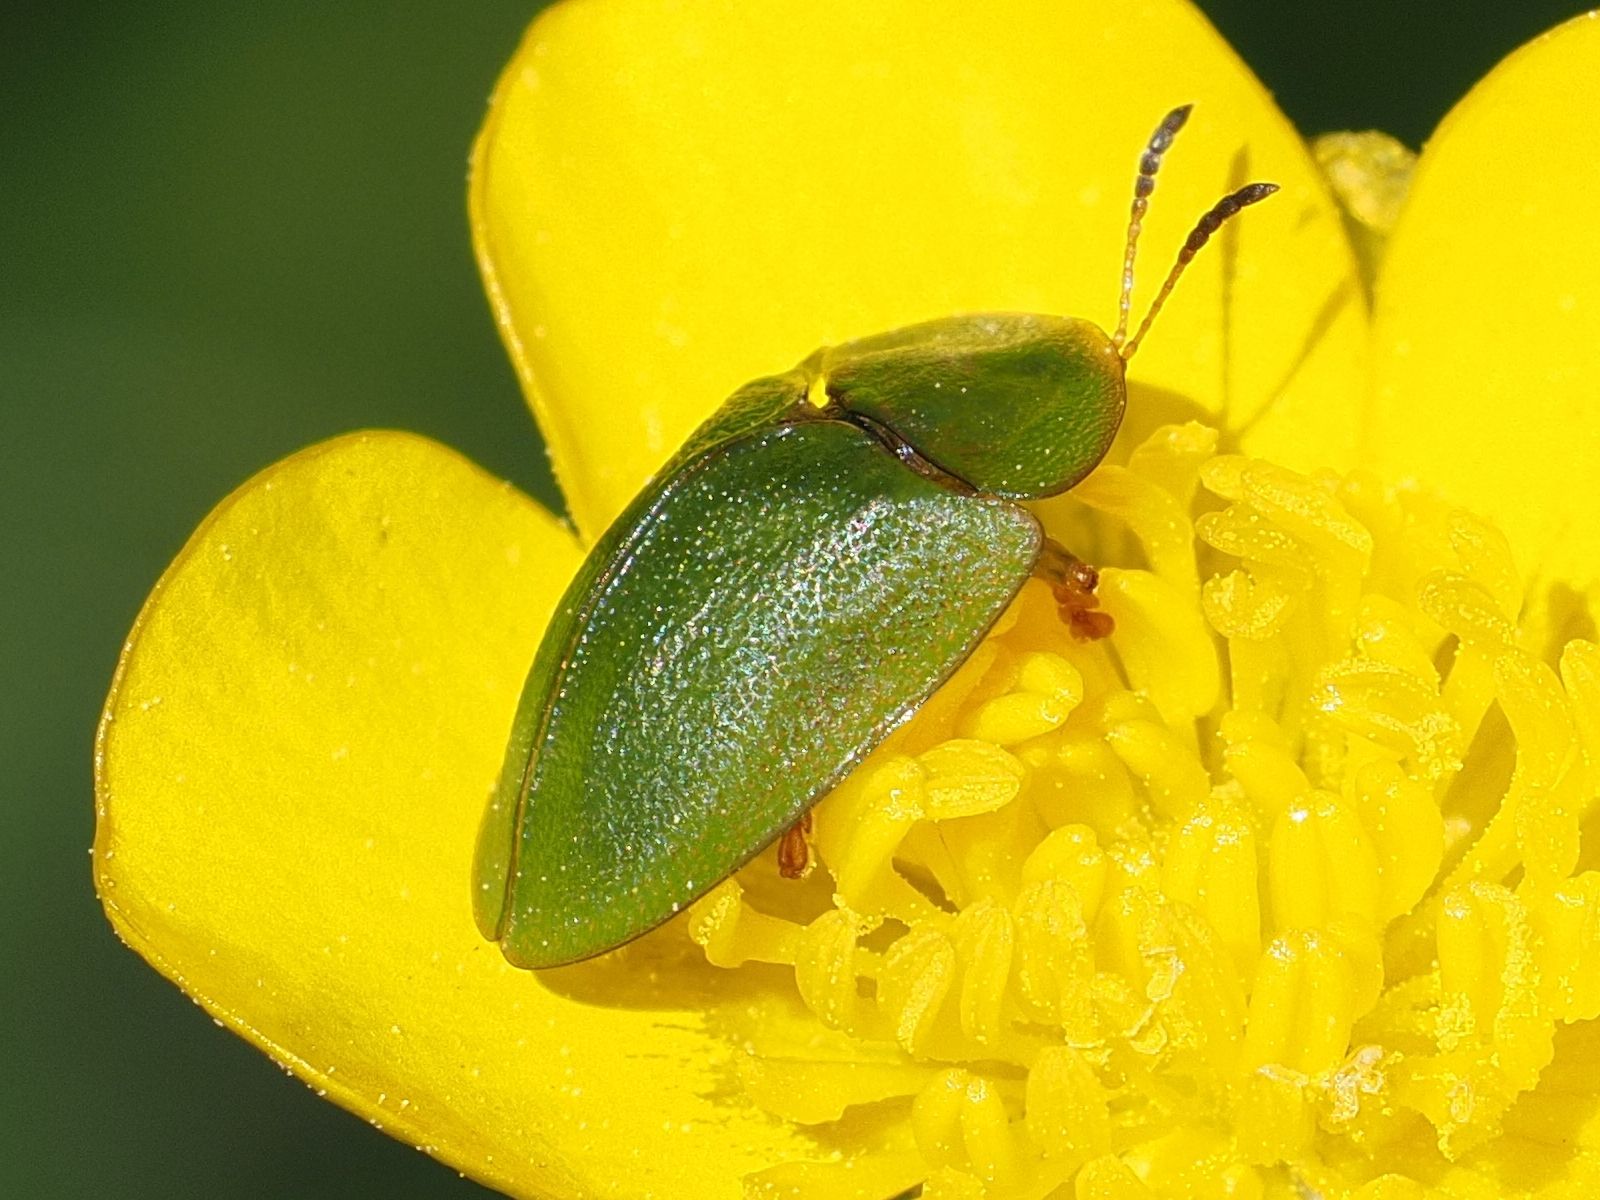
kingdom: Animalia
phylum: Arthropoda
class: Insecta
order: Coleoptera
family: Chrysomelidae
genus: Cassida
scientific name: Cassida viridis
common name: Green tortoise beetle
